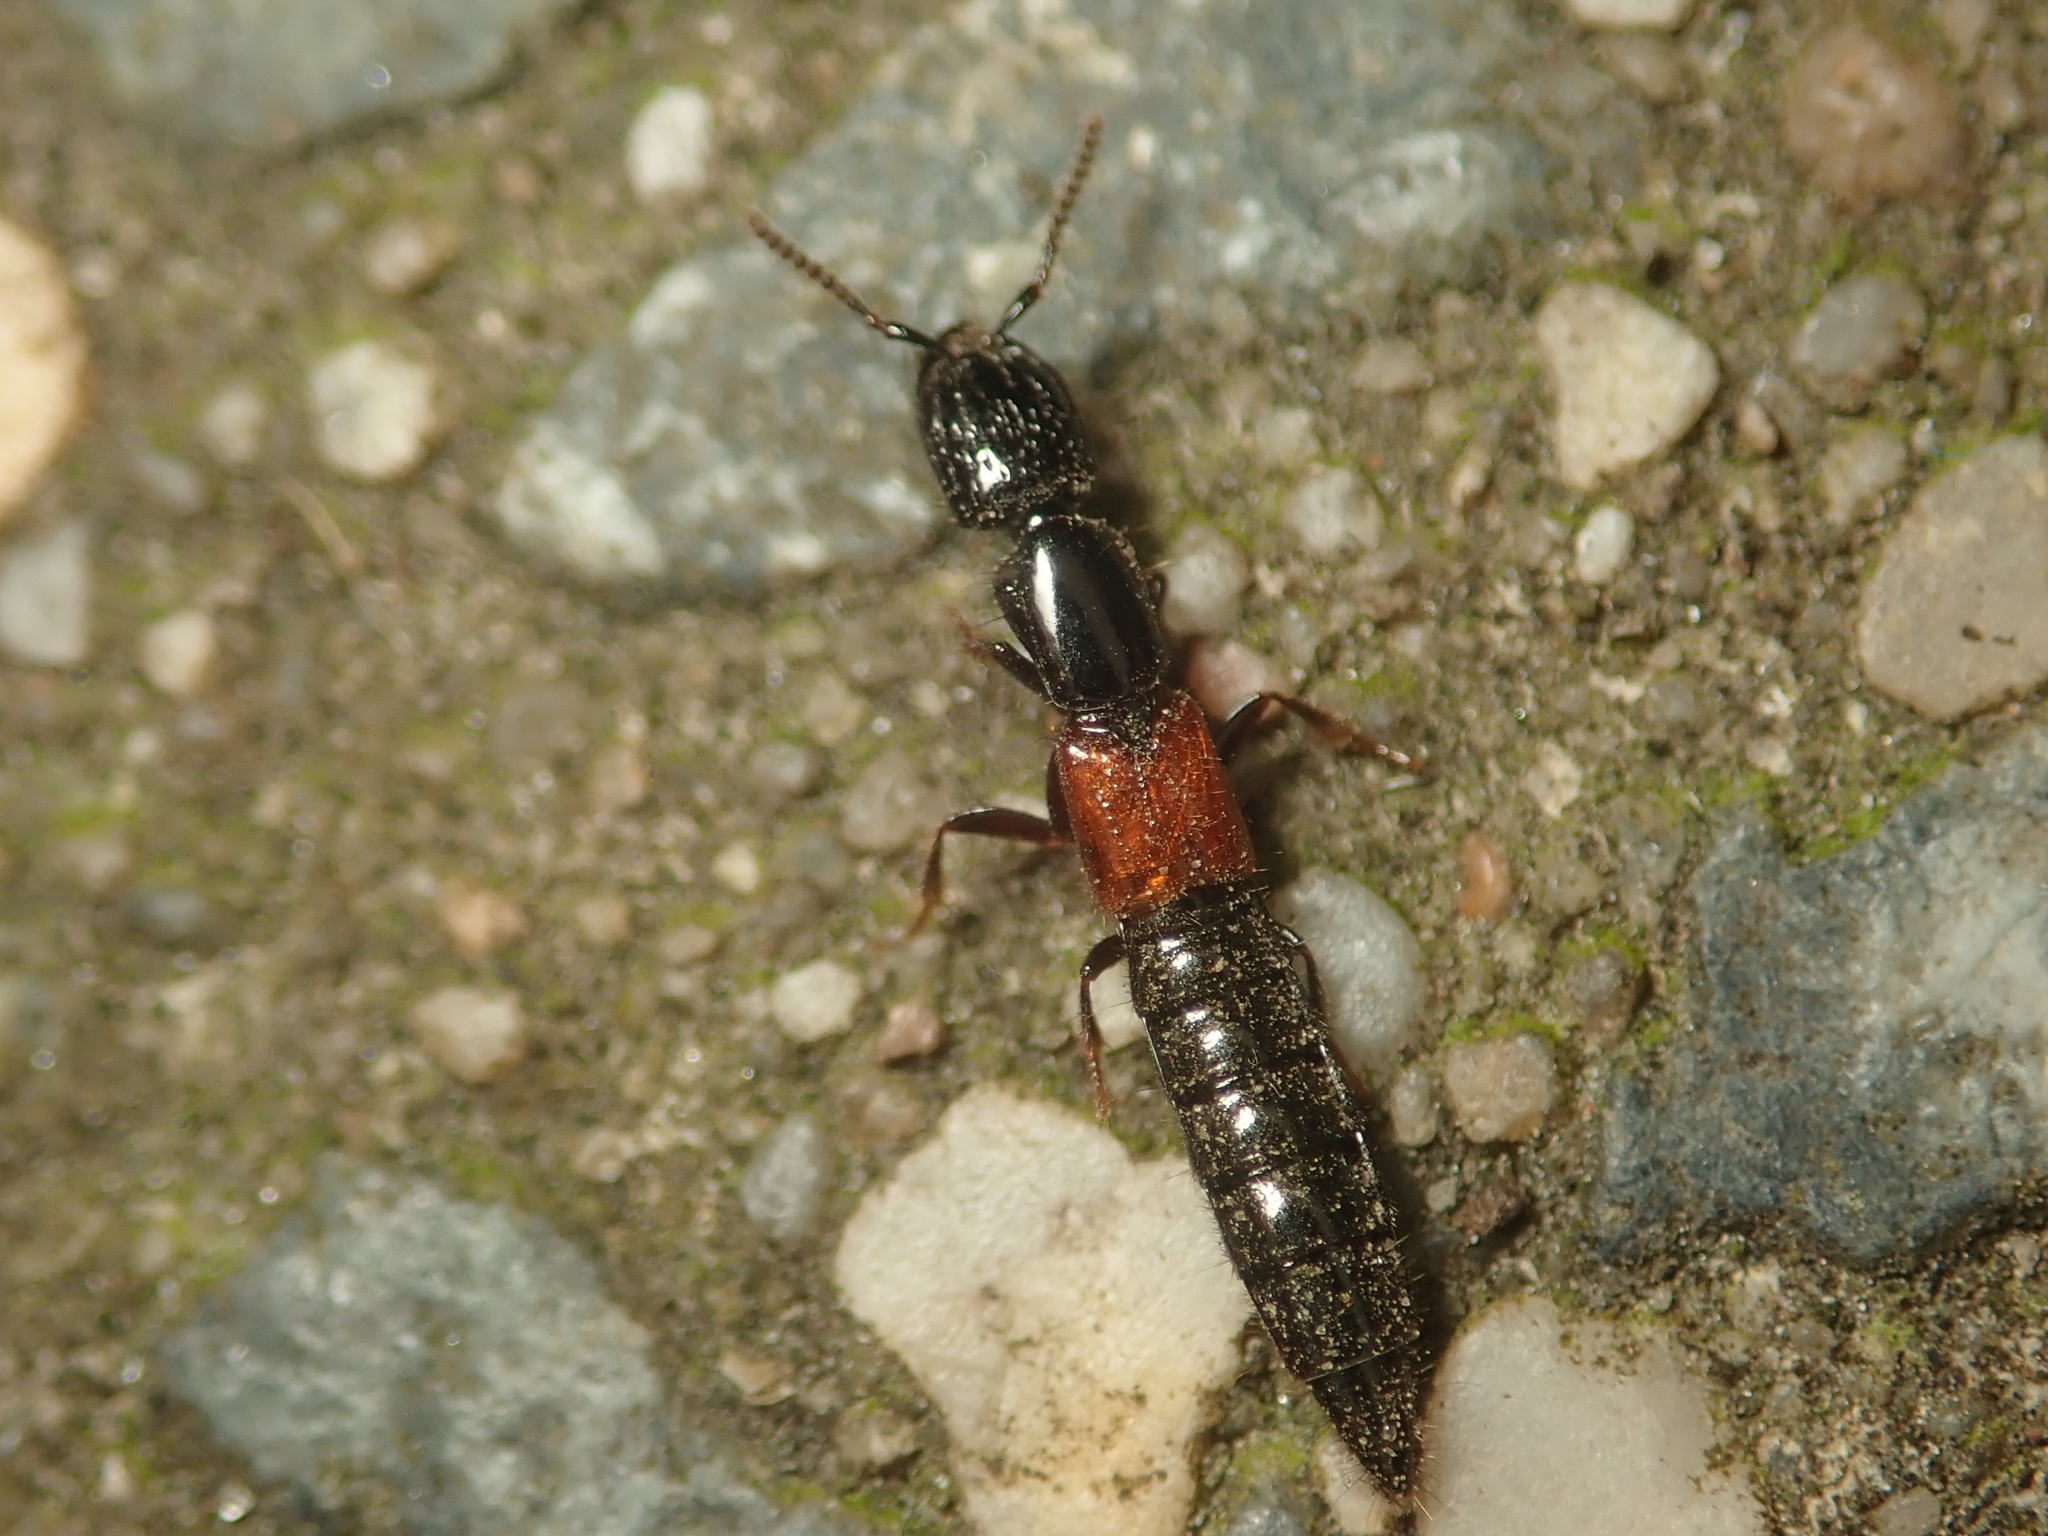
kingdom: Animalia
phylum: Arthropoda
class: Insecta
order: Coleoptera
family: Staphylinidae
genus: Gauropterus
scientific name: Gauropterus fulgidus
